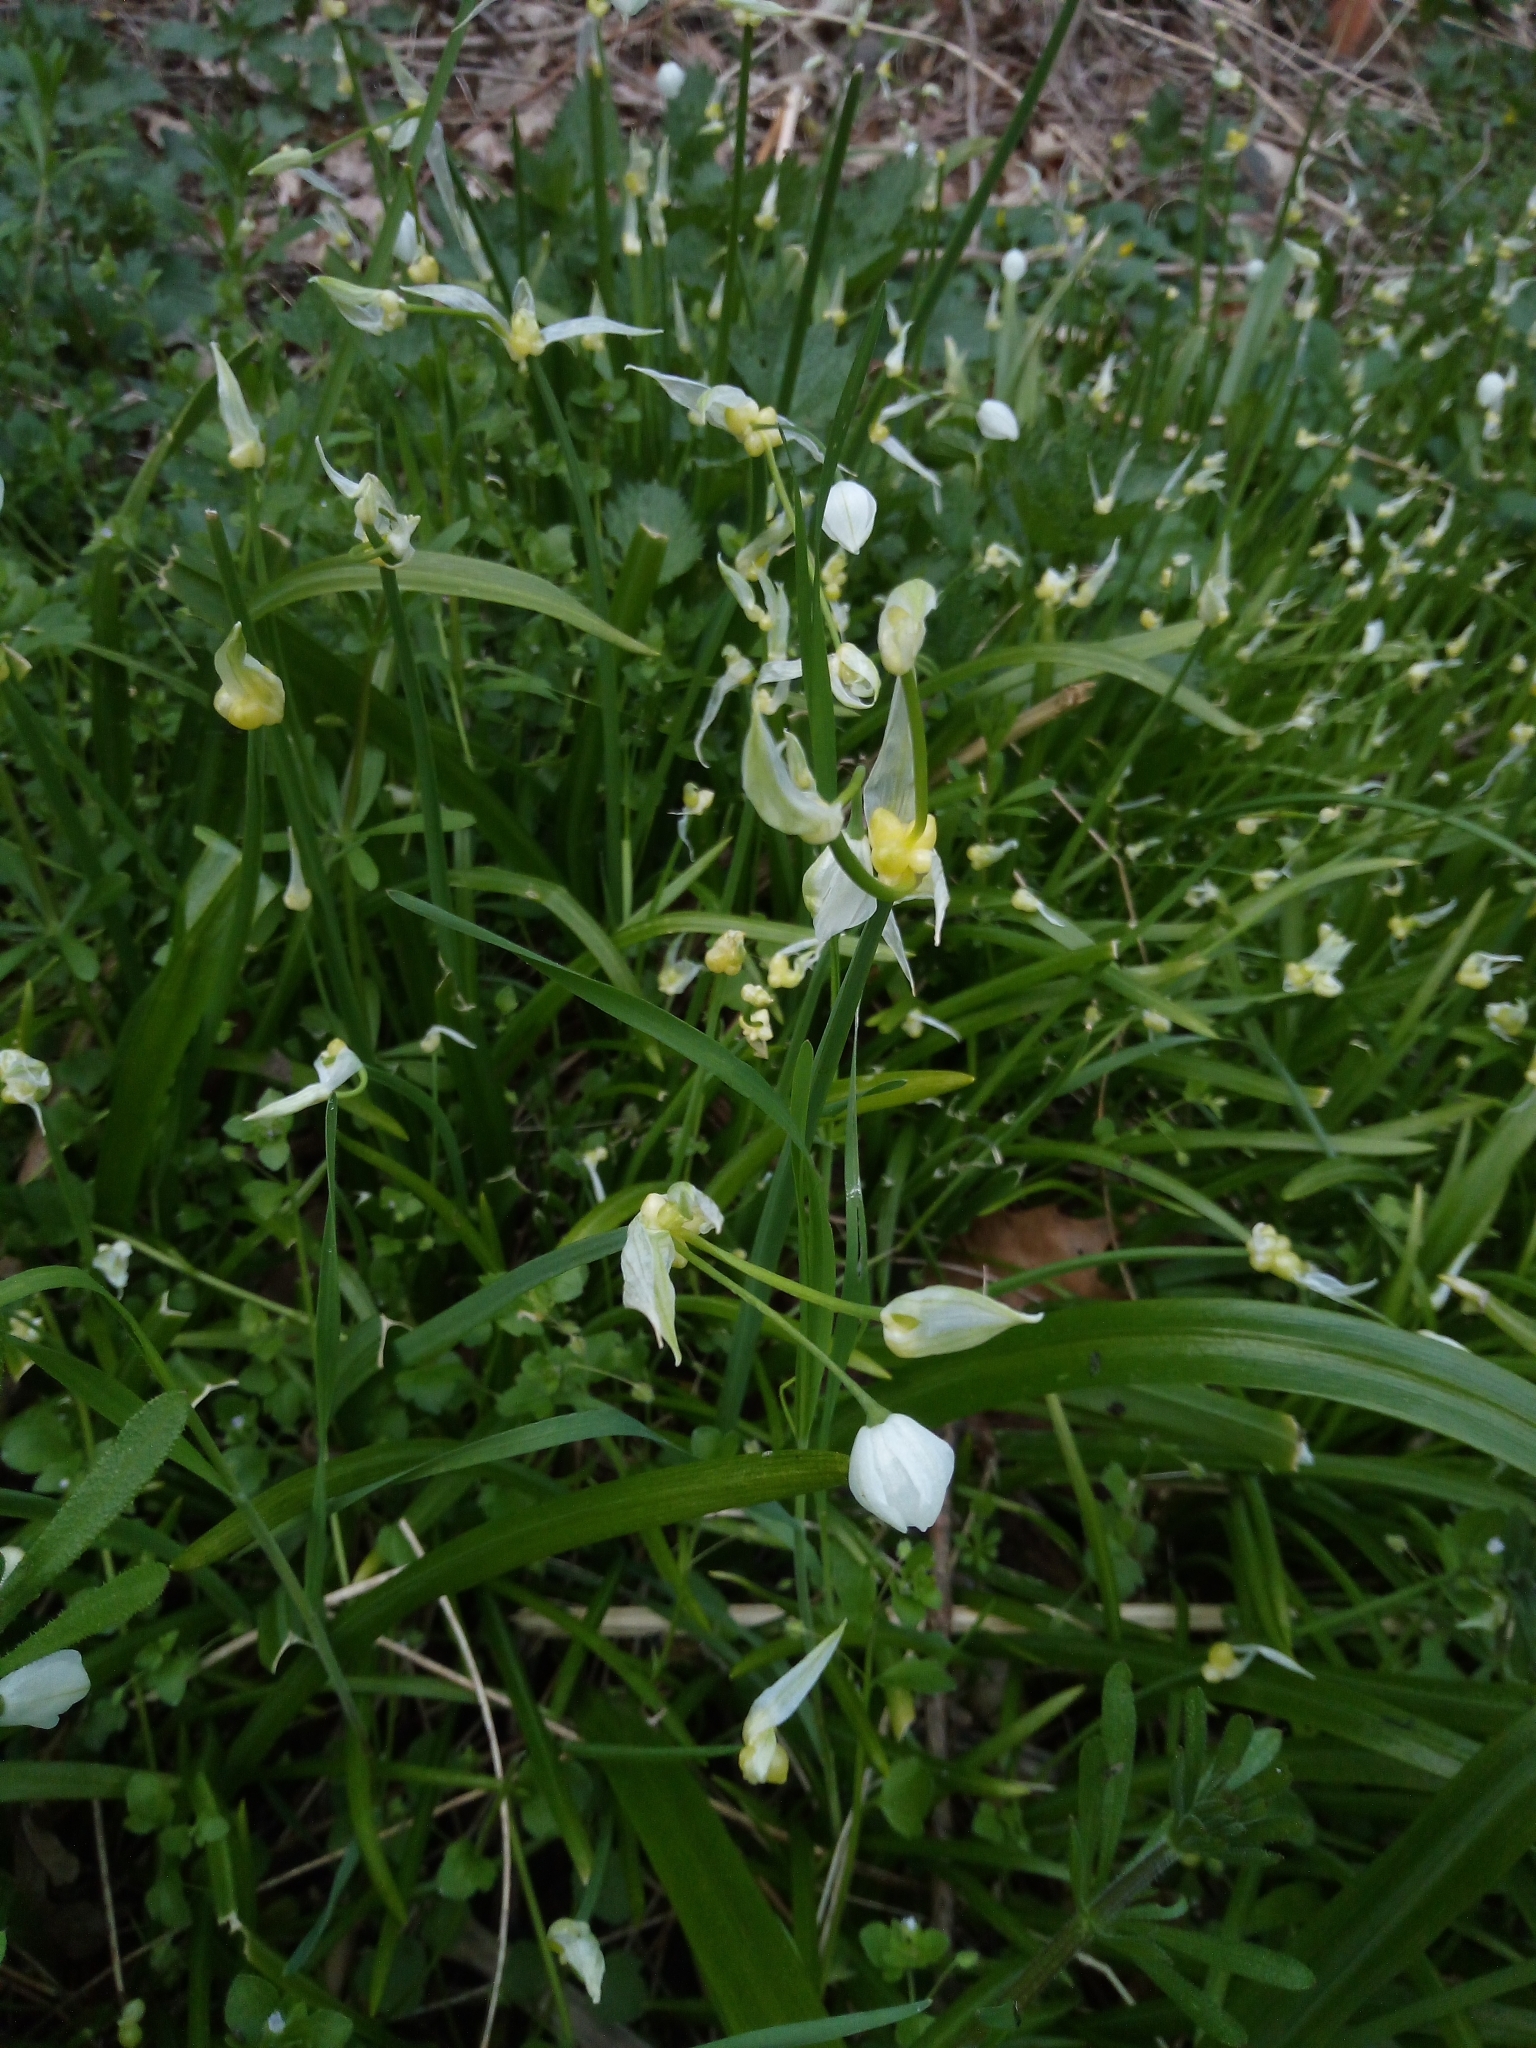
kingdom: Plantae
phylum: Tracheophyta
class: Liliopsida
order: Asparagales
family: Amaryllidaceae
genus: Allium
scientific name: Allium paradoxum
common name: Few-flowered garlic
